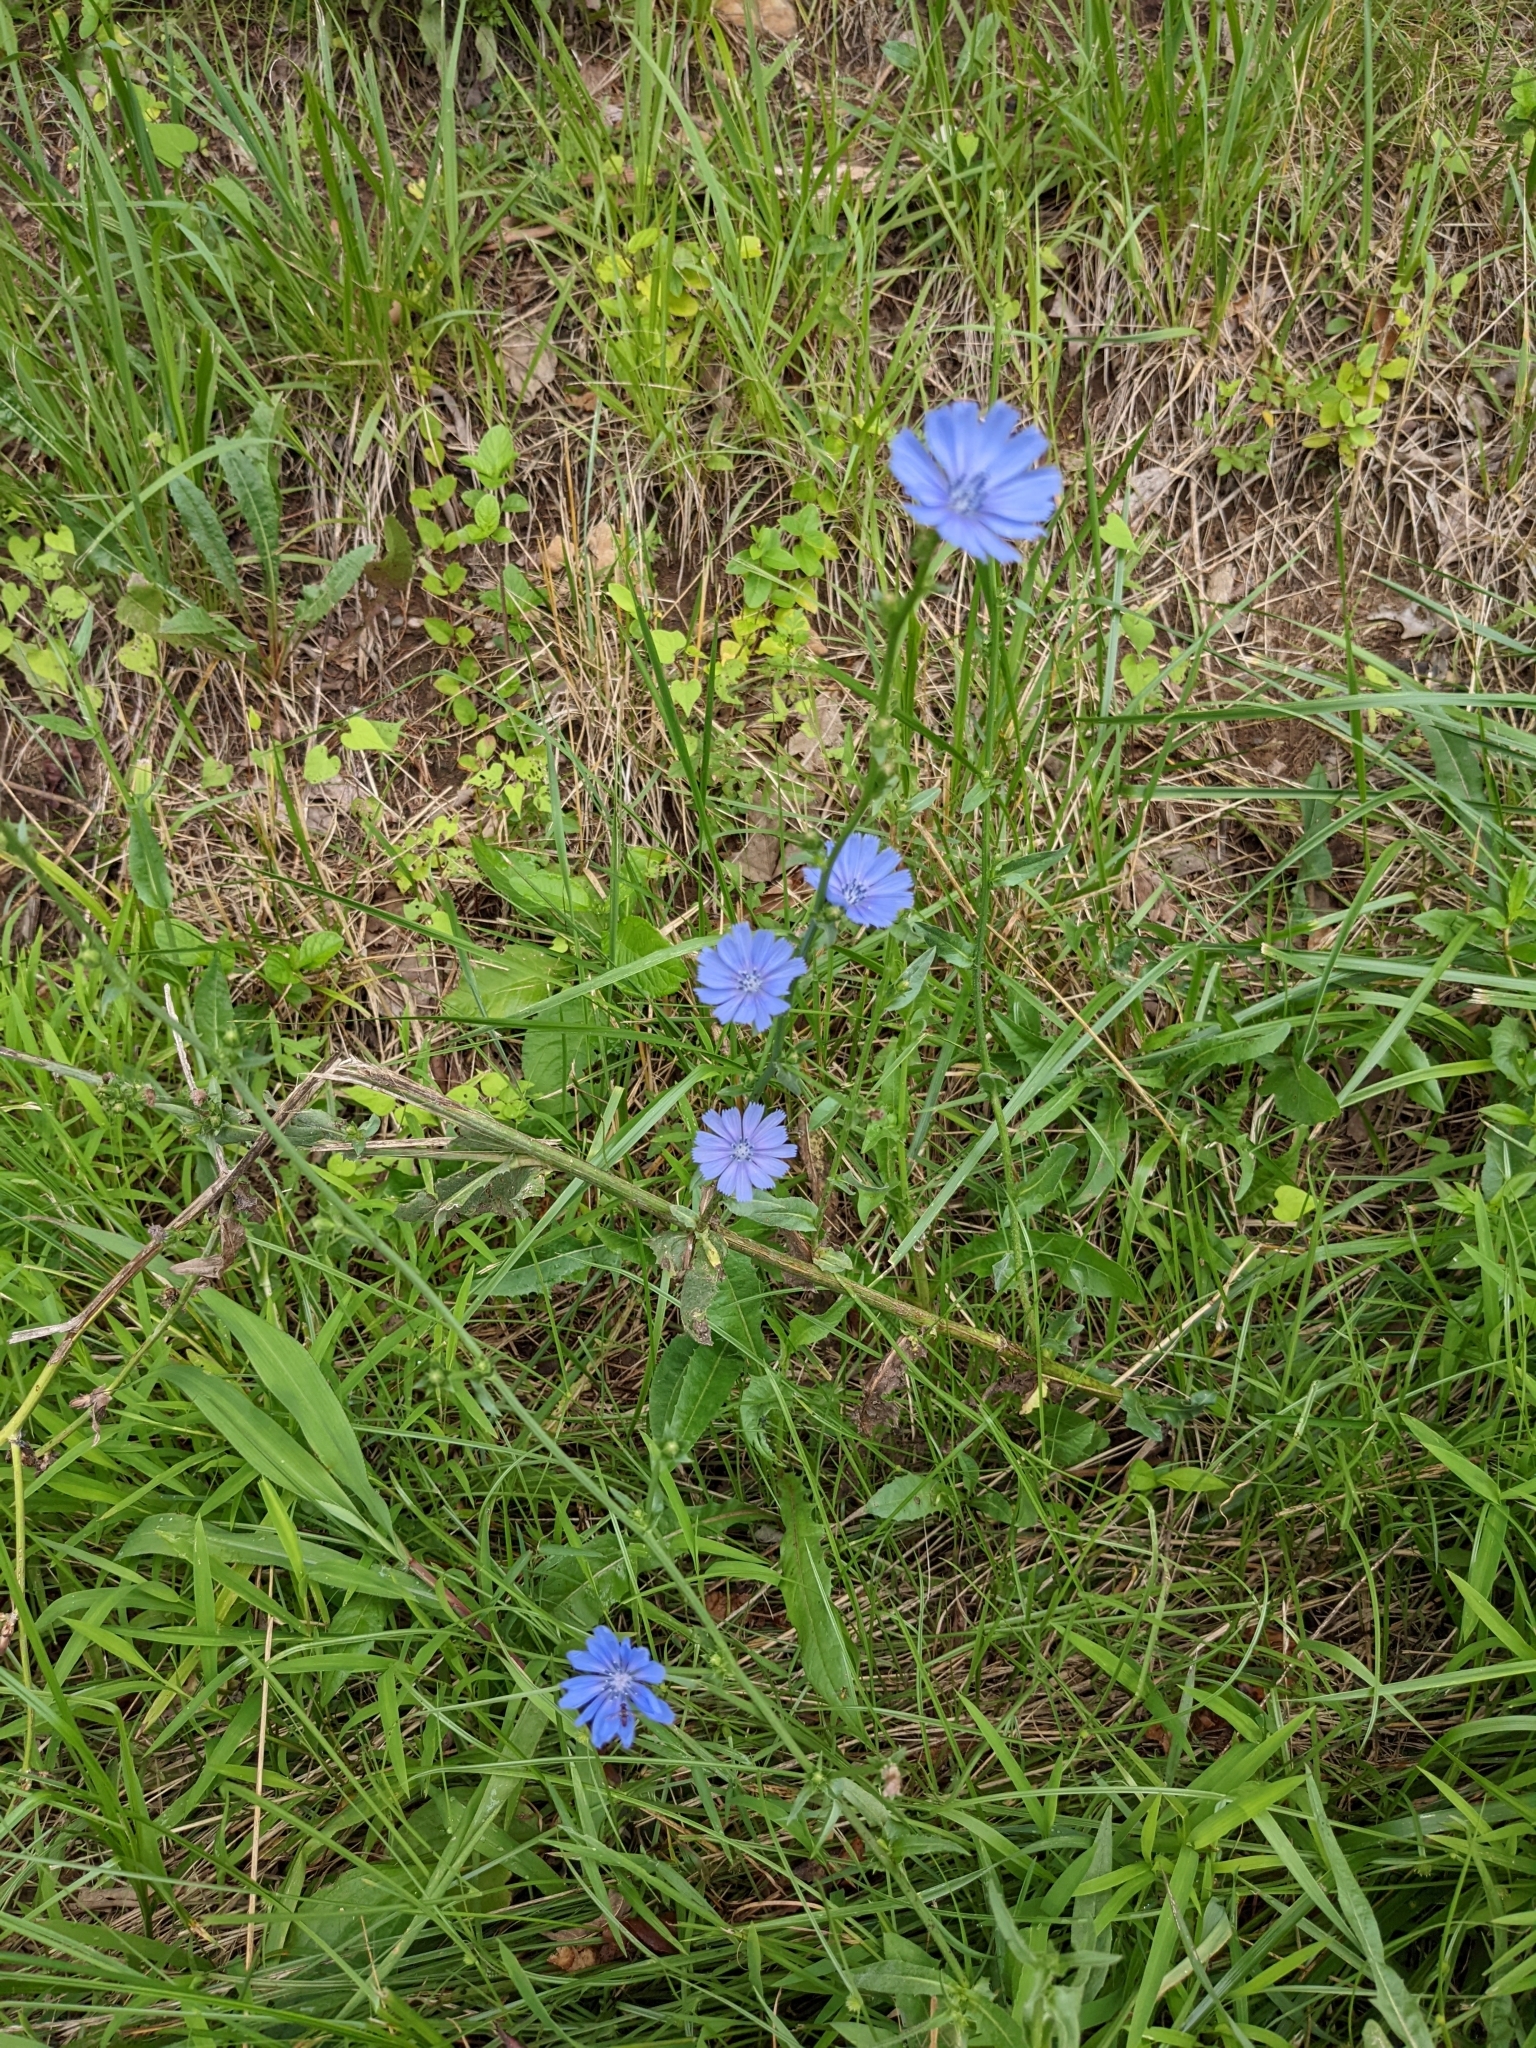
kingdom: Plantae
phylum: Tracheophyta
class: Magnoliopsida
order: Asterales
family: Asteraceae
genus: Cichorium
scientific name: Cichorium intybus
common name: Chicory
